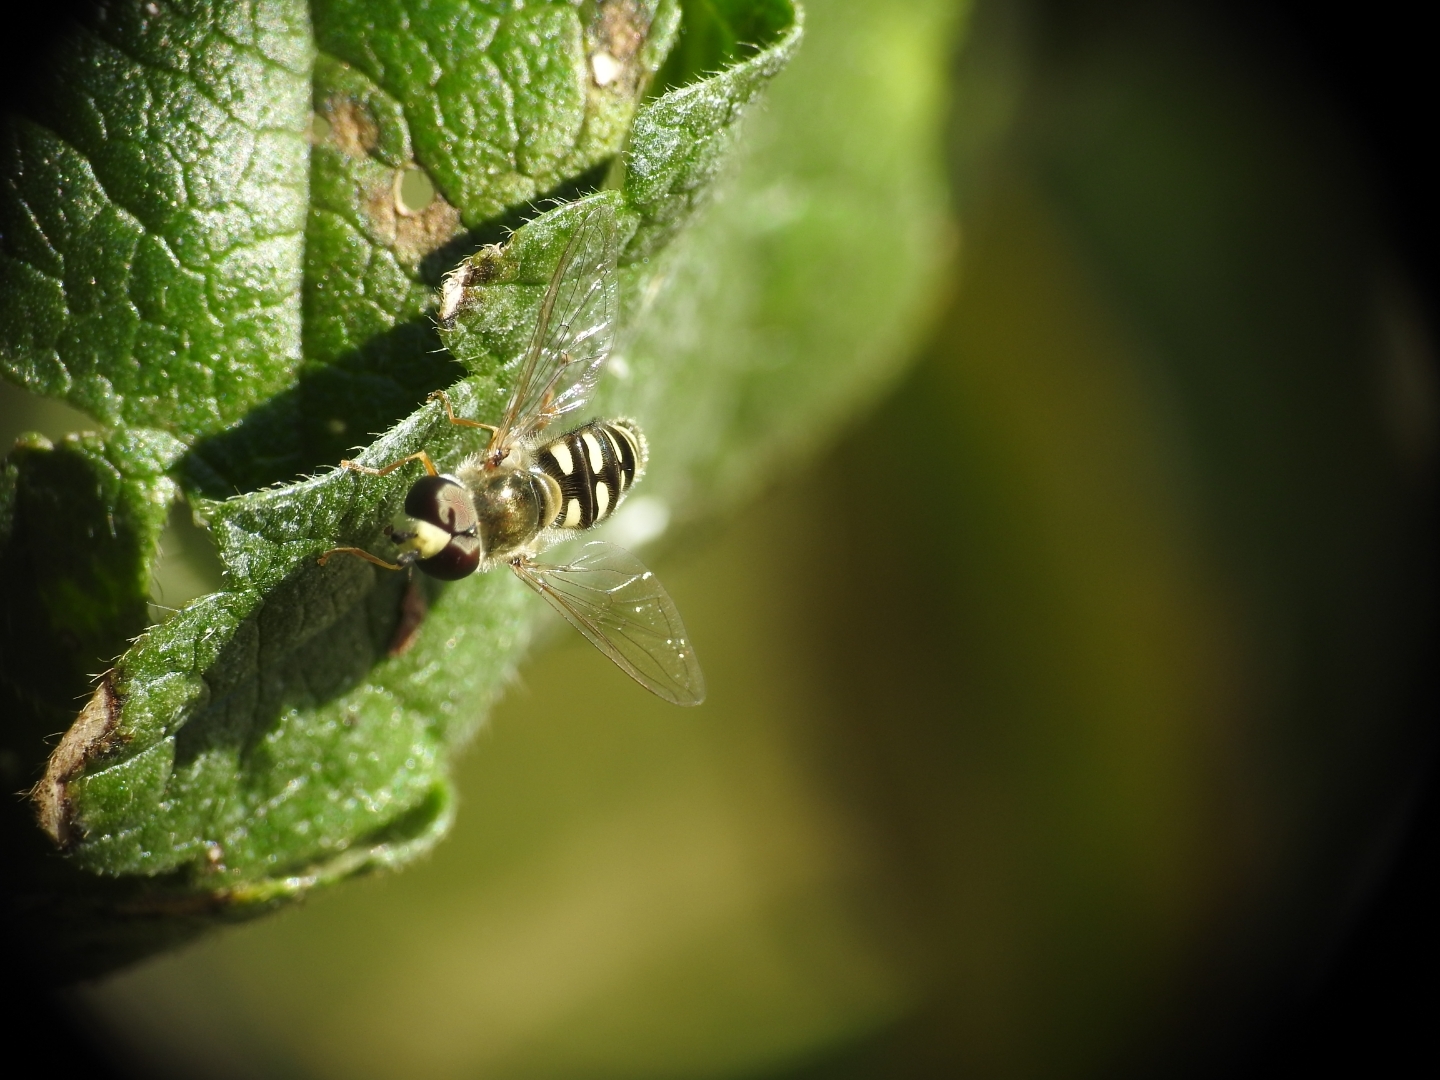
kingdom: Animalia
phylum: Arthropoda
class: Insecta
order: Diptera
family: Syrphidae
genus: Eupeodes
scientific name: Eupeodes volucris
